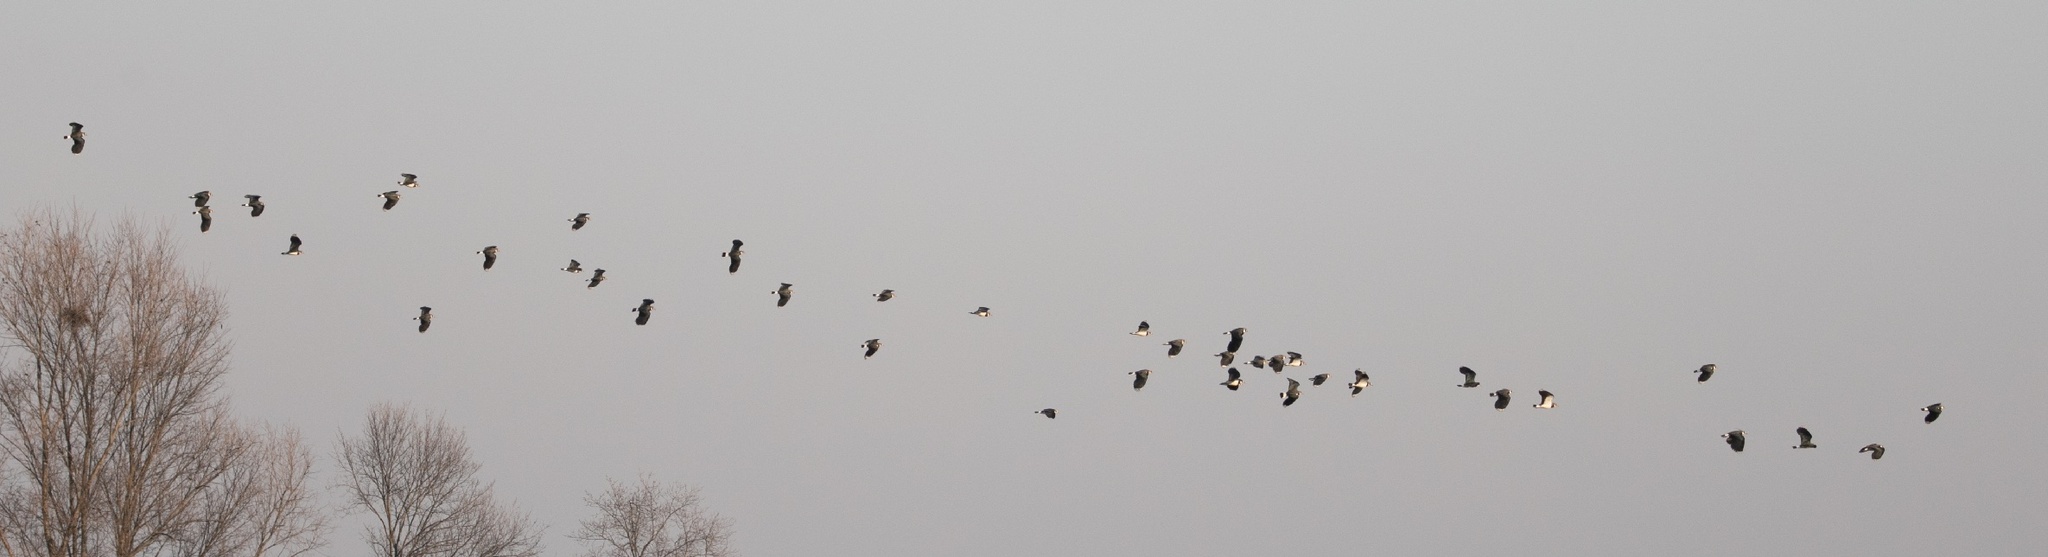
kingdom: Animalia
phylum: Chordata
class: Aves
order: Charadriiformes
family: Charadriidae
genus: Vanellus
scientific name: Vanellus vanellus
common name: Northern lapwing
